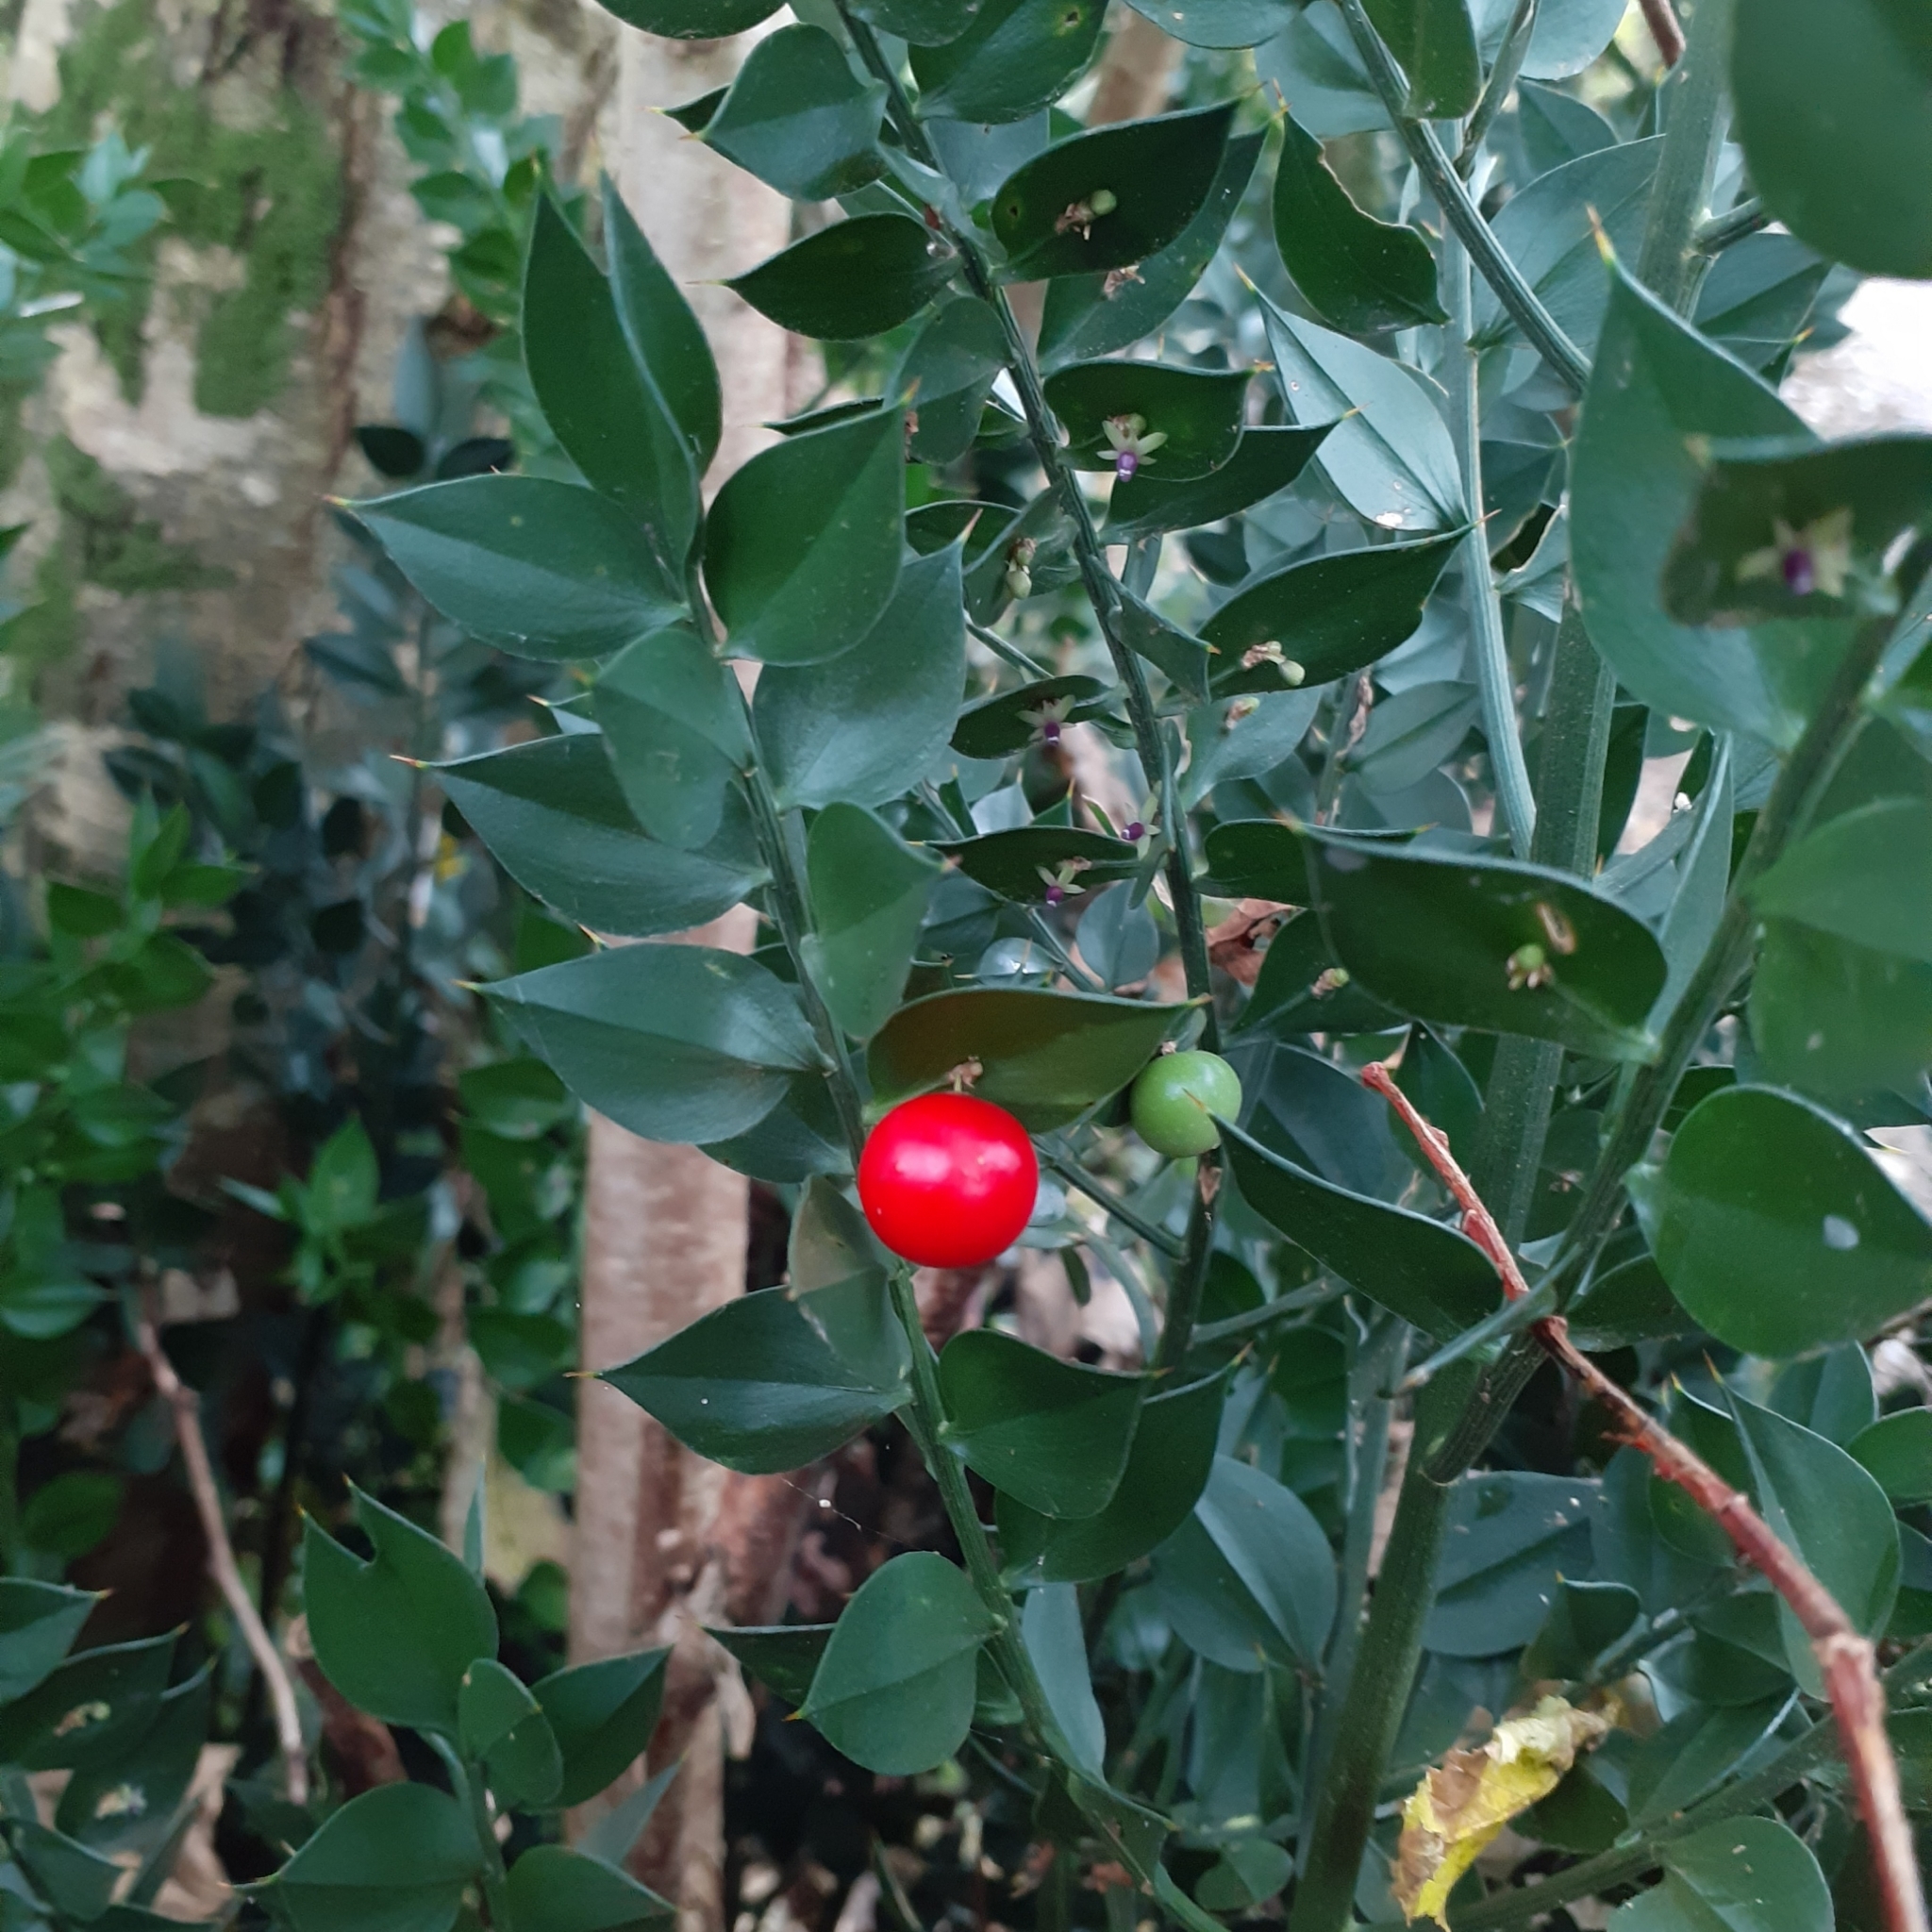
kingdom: Plantae
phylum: Tracheophyta
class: Liliopsida
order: Asparagales
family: Asparagaceae
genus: Ruscus
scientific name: Ruscus aculeatus
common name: Butcher's-broom
